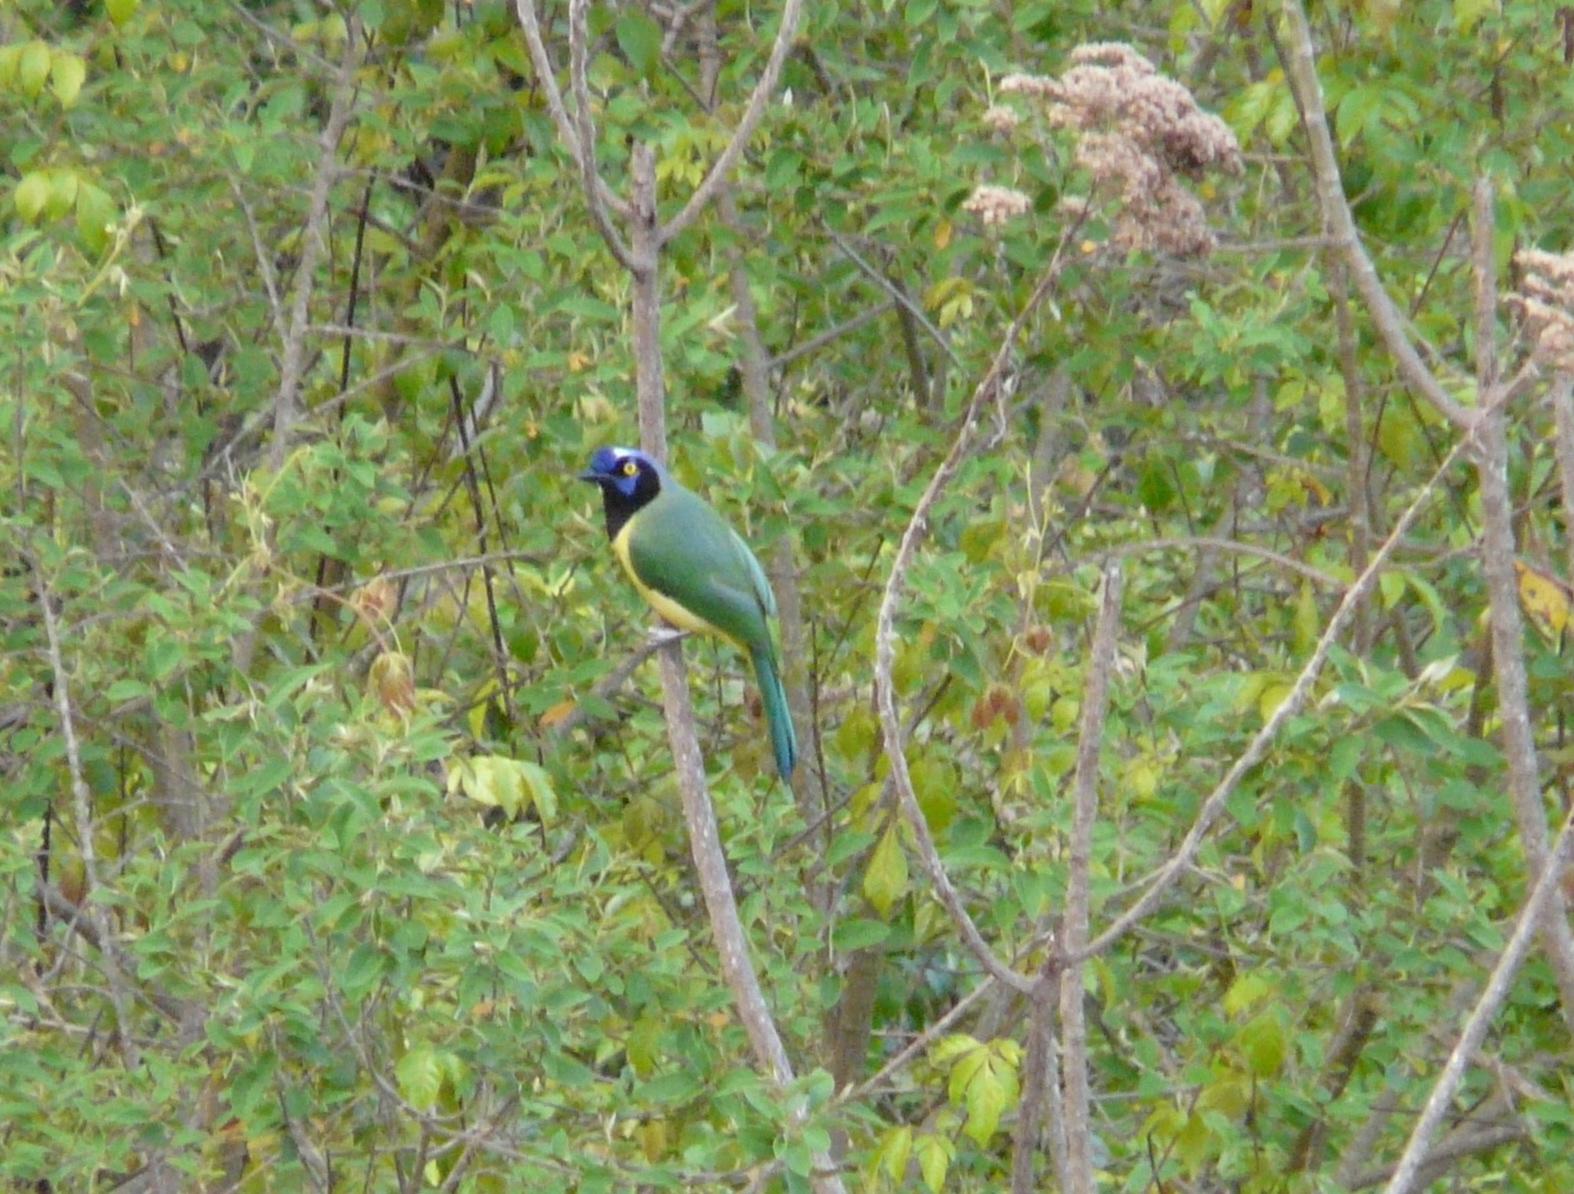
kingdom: Animalia
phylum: Chordata
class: Aves
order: Passeriformes
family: Corvidae
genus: Cyanocorax
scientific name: Cyanocorax yncas
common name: Green jay
